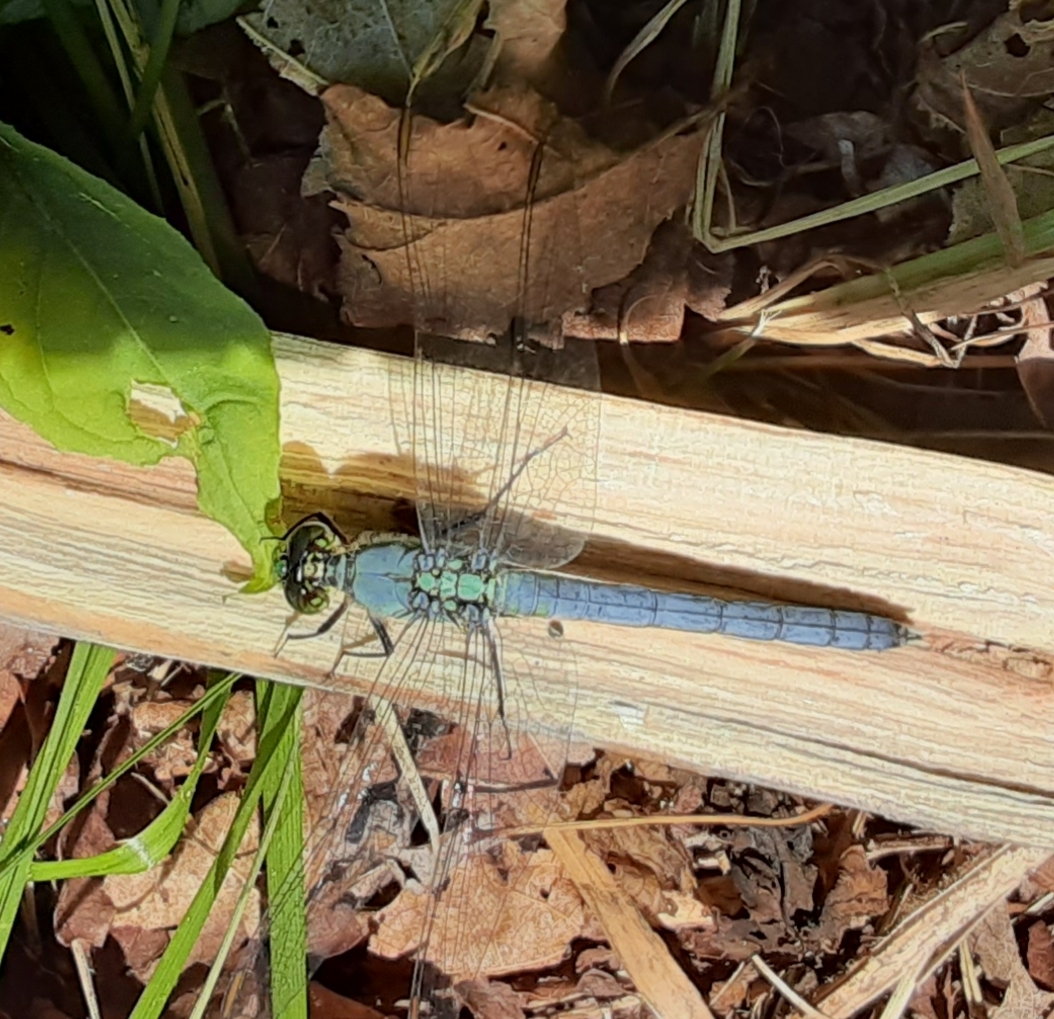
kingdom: Animalia
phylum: Arthropoda
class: Insecta
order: Odonata
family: Libellulidae
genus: Erythemis
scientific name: Erythemis simplicicollis
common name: Eastern pondhawk
